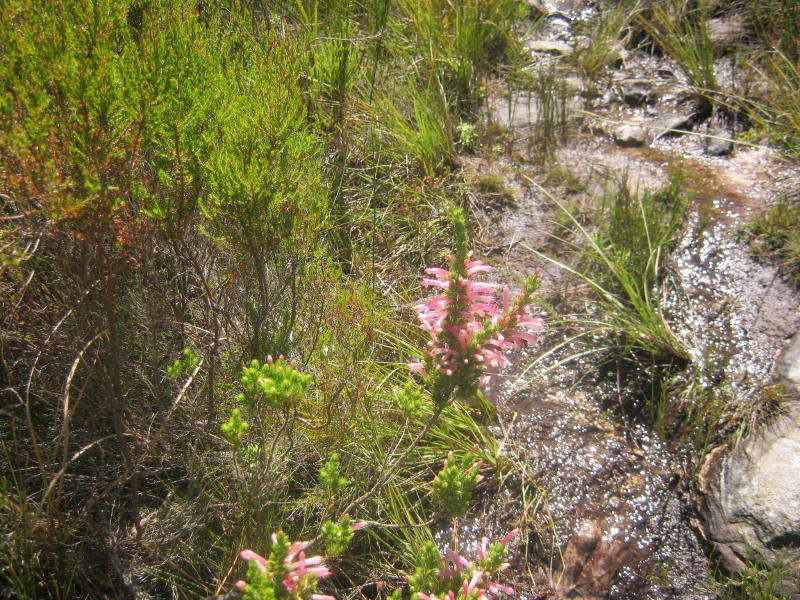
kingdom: Plantae
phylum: Tracheophyta
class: Magnoliopsida
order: Ericales
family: Ericaceae
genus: Erica
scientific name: Erica curviflora
